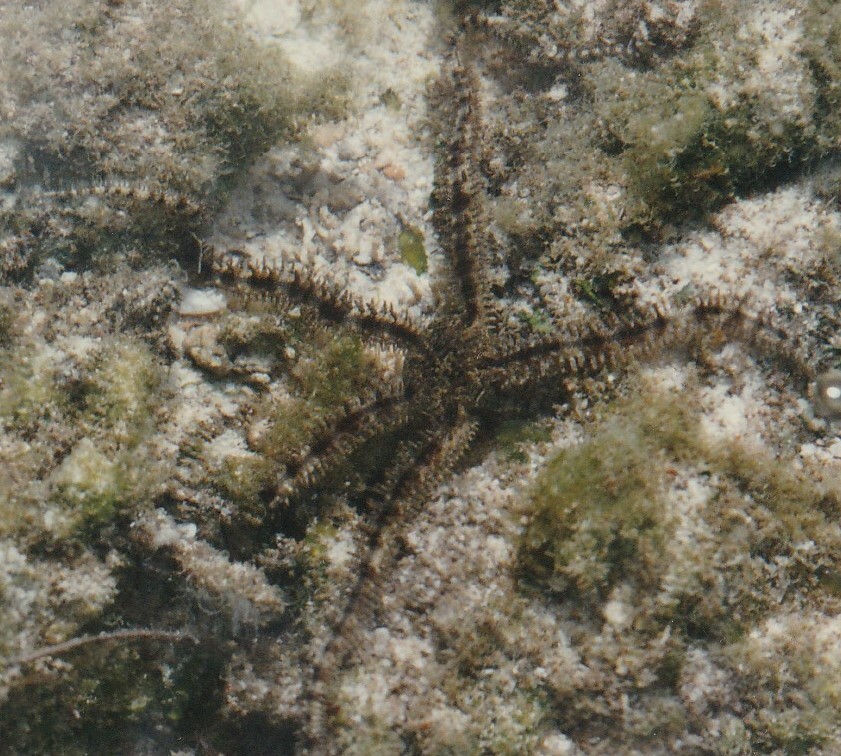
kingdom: Animalia
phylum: Echinodermata
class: Ophiuroidea
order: Ophiacanthida
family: Ophiocomidae
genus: Ophiocoma
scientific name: Ophiocoma scolopendrina
